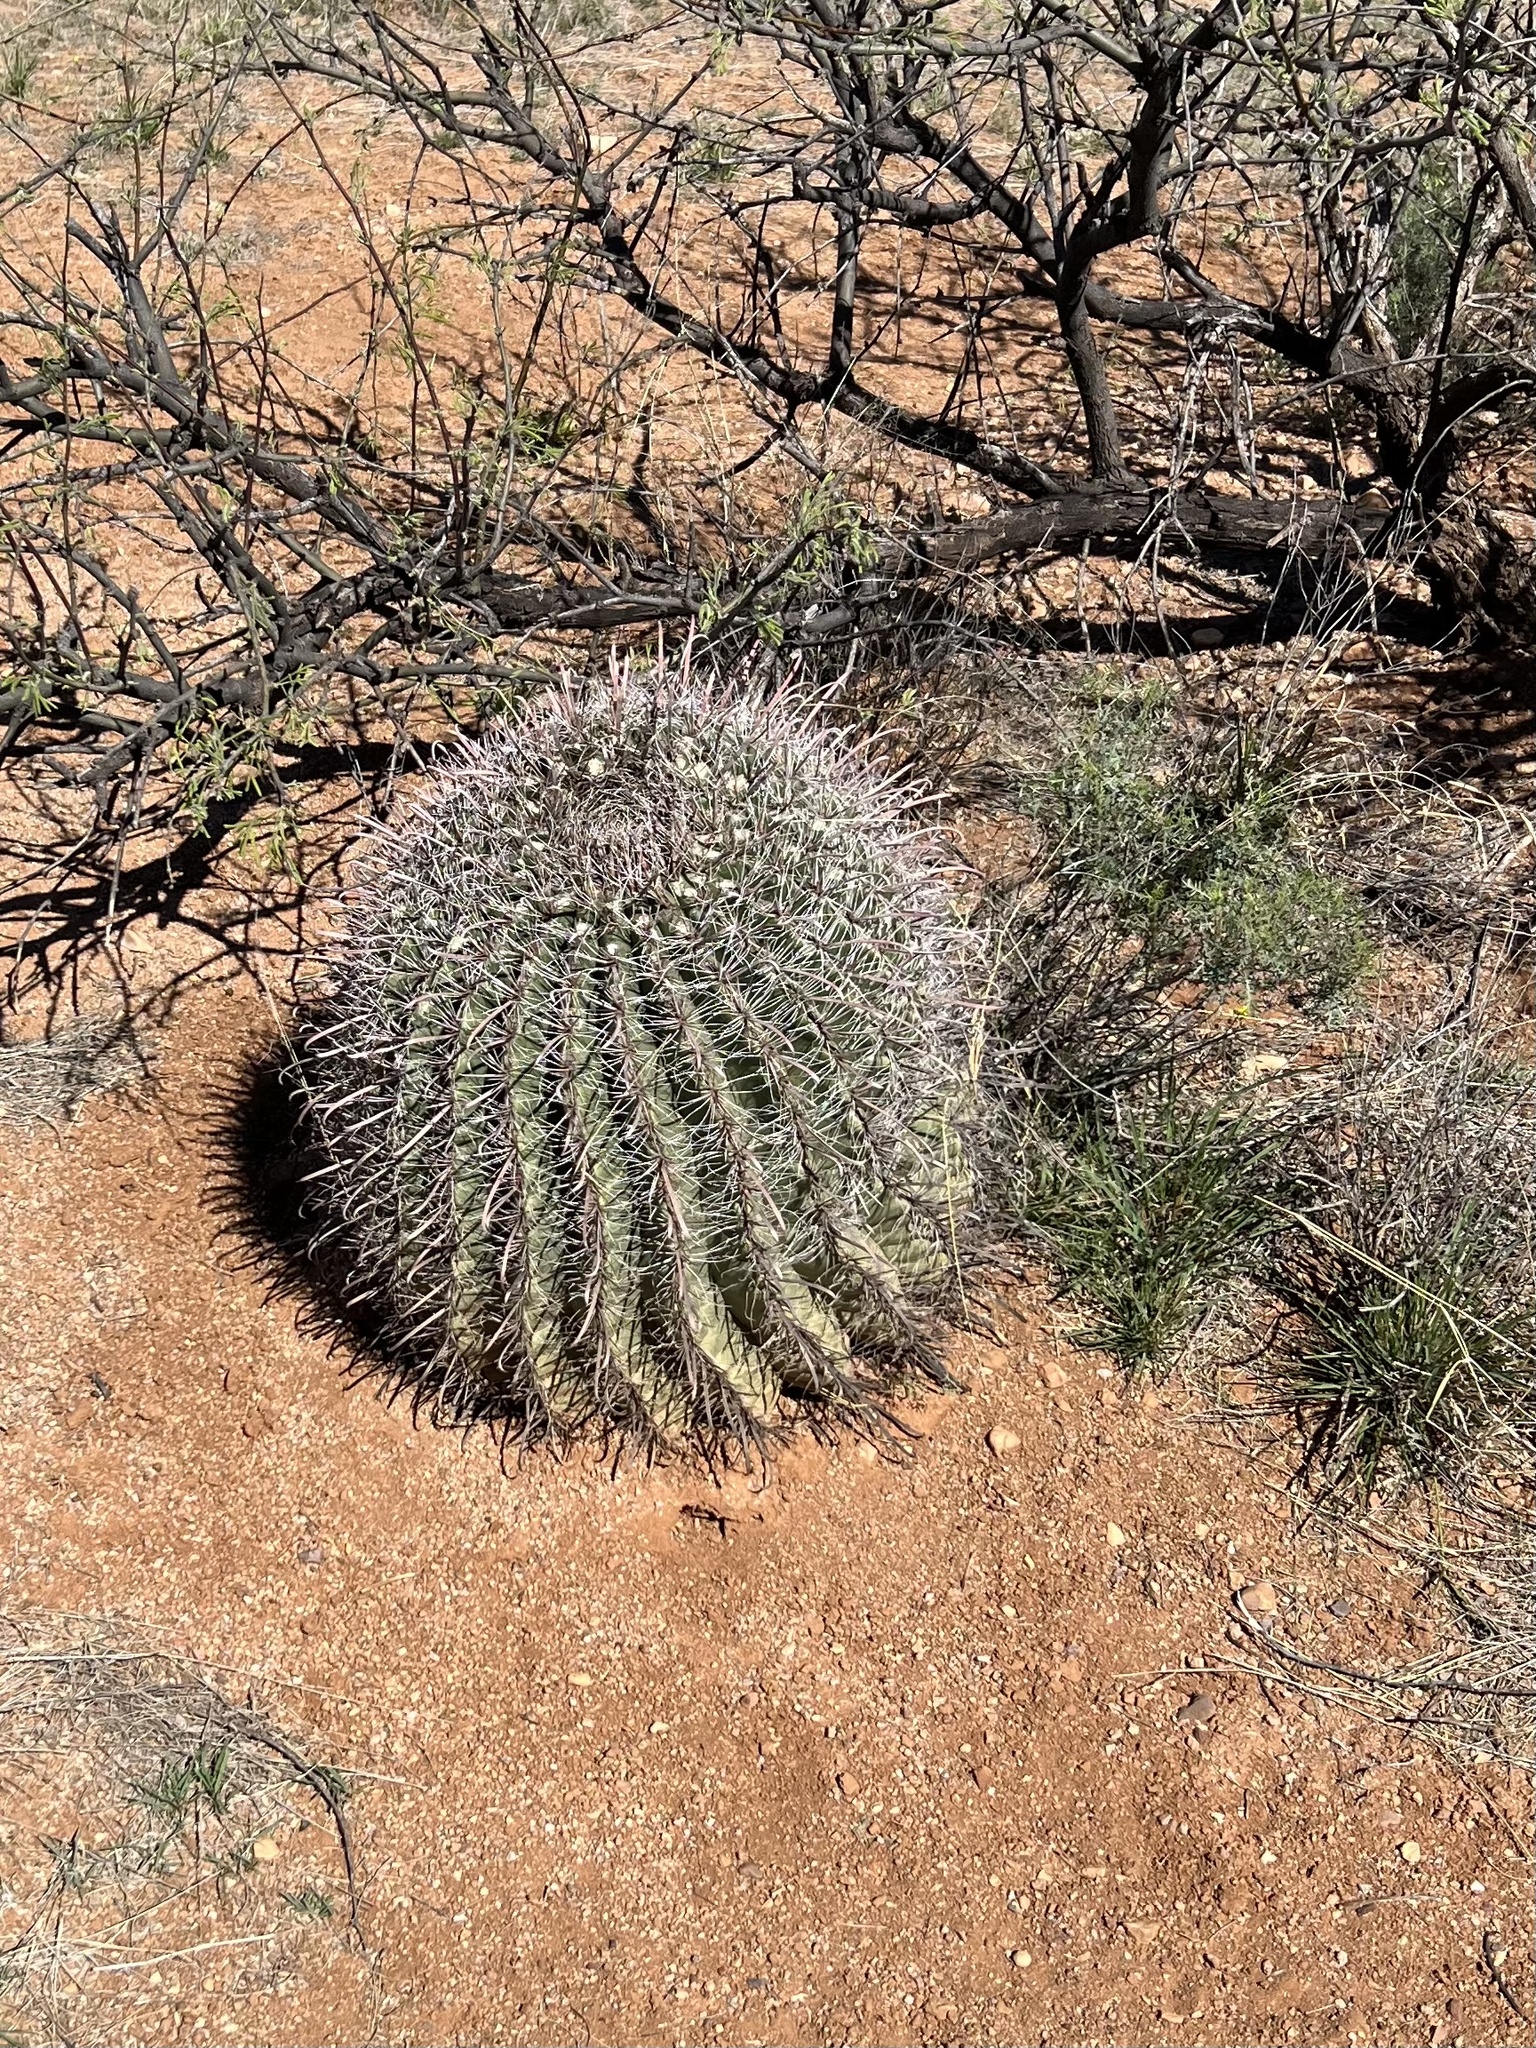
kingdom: Plantae
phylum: Tracheophyta
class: Magnoliopsida
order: Caryophyllales
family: Cactaceae
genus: Ferocactus
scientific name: Ferocactus wislizeni
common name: Candy barrel cactus
